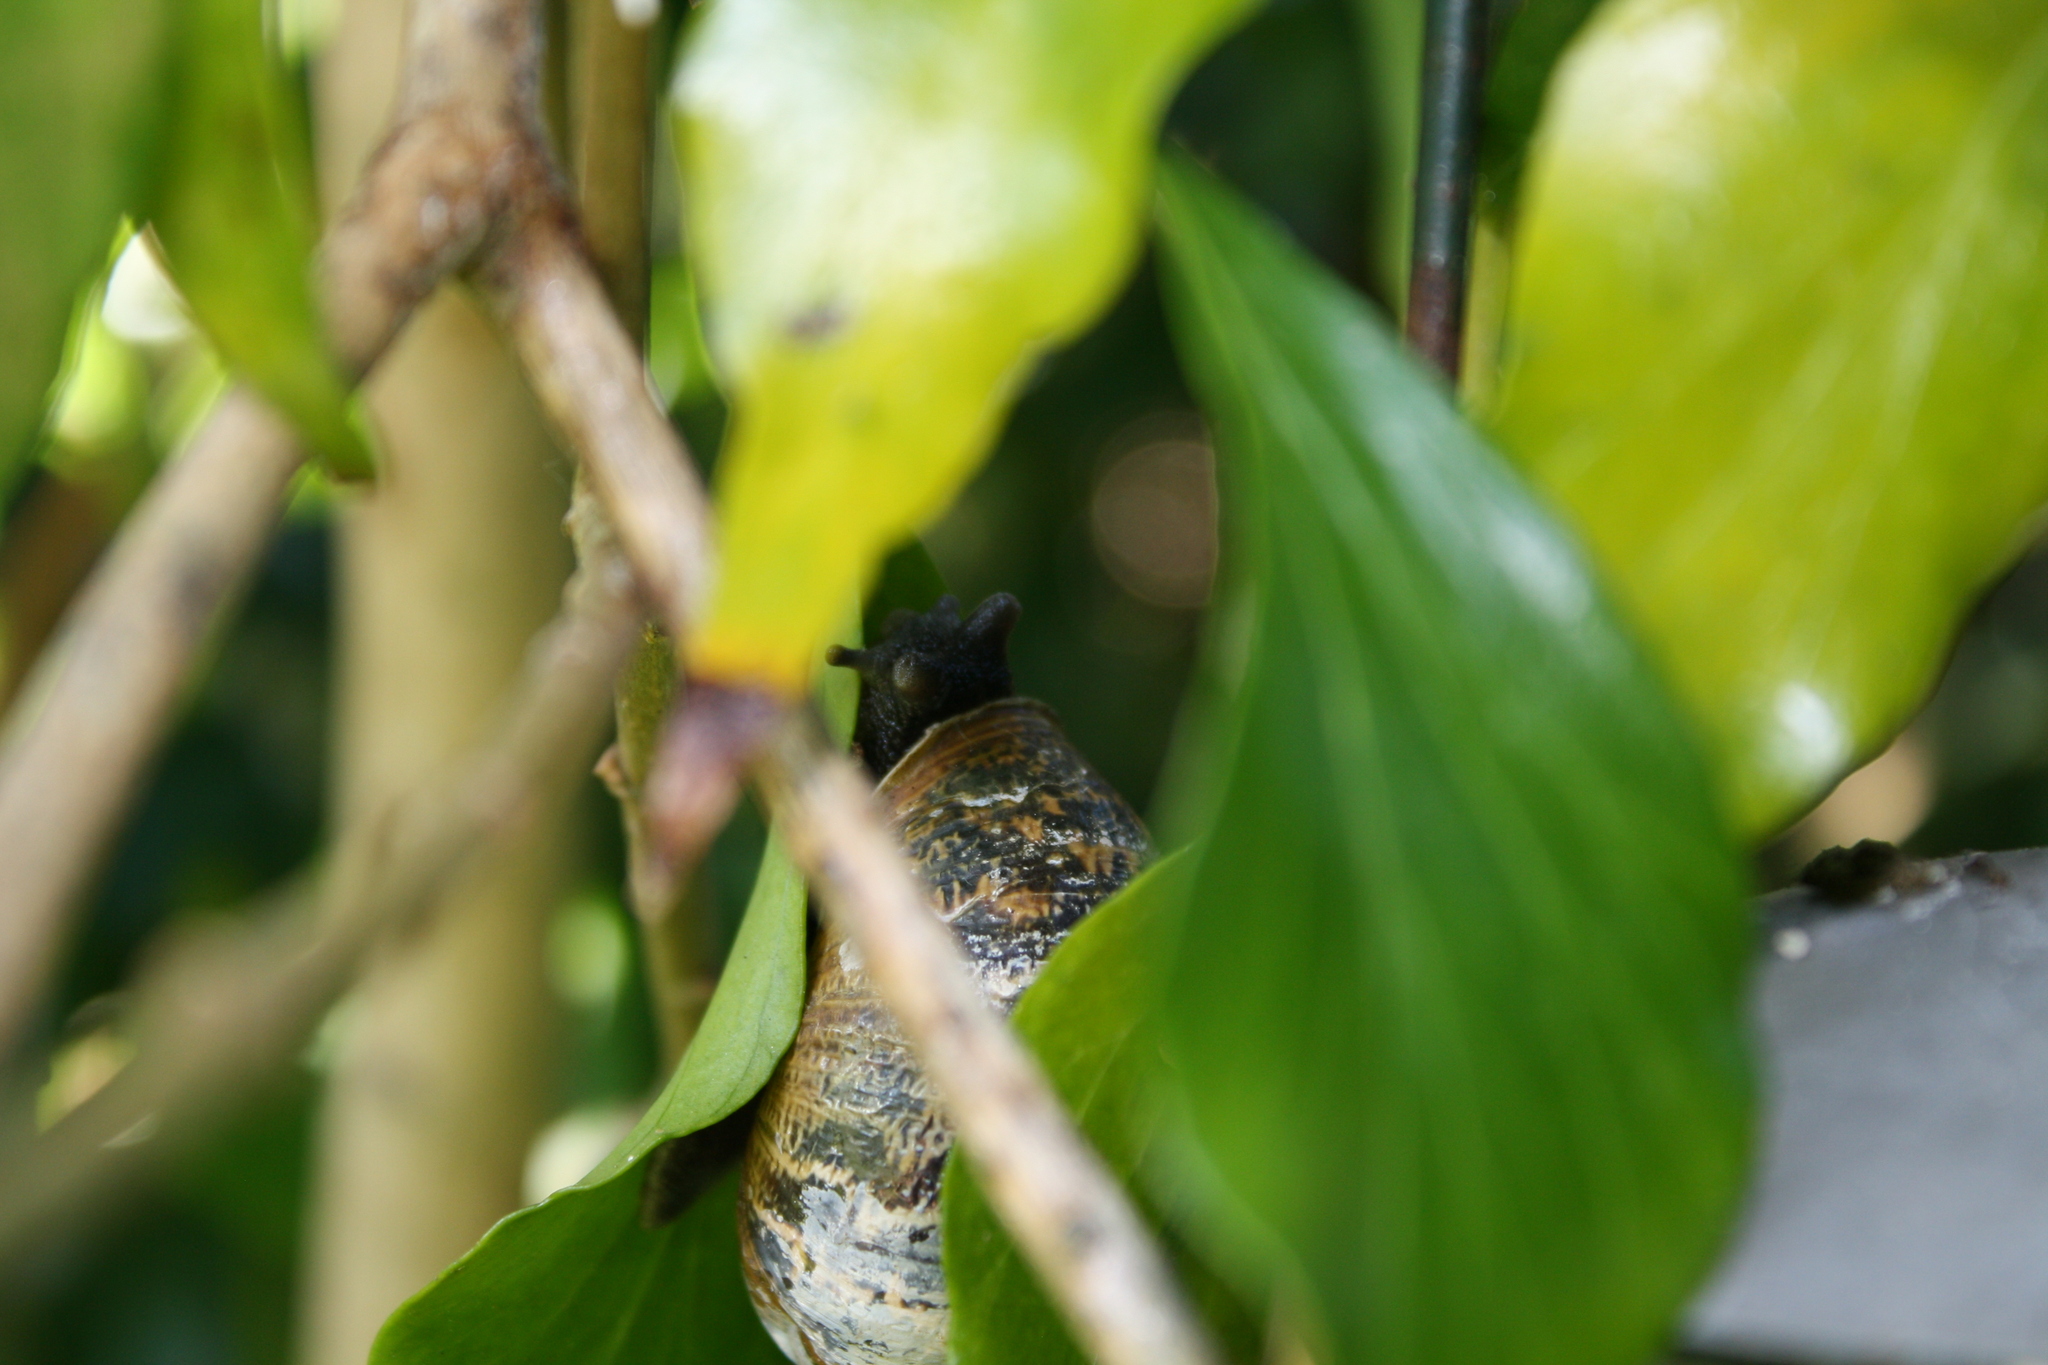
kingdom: Animalia
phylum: Mollusca
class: Gastropoda
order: Stylommatophora
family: Helicidae
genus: Cornu
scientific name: Cornu aspersum
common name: Brown garden snail
